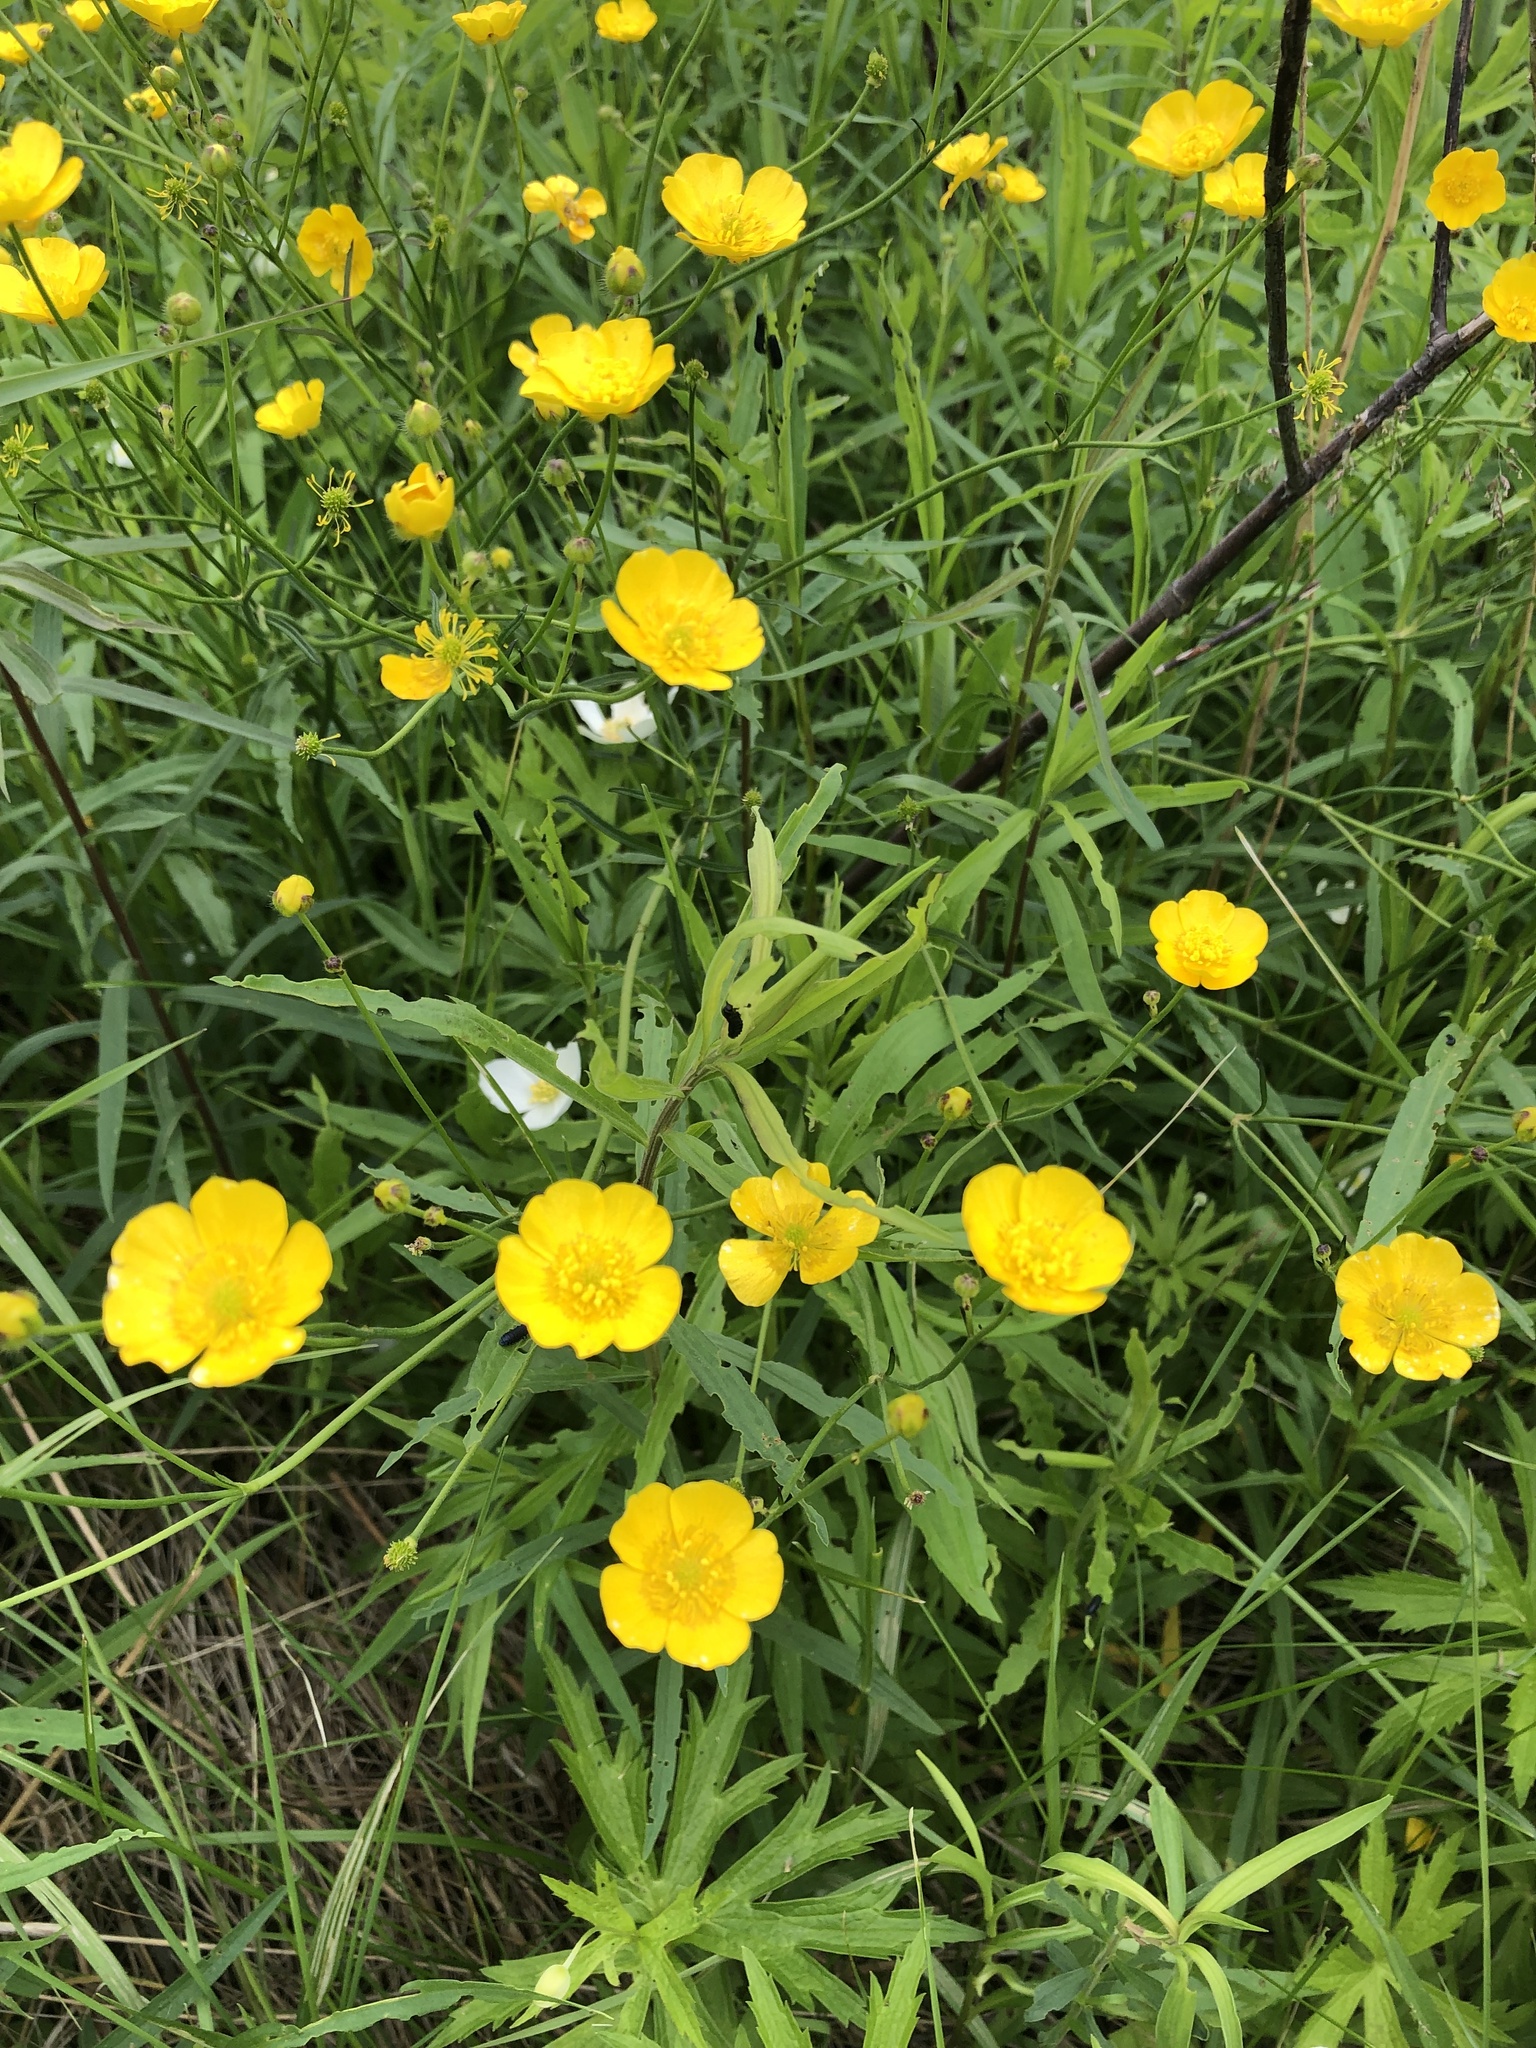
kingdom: Plantae
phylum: Tracheophyta
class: Magnoliopsida
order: Ranunculales
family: Ranunculaceae
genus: Ranunculus
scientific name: Ranunculus acris
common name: Meadow buttercup
